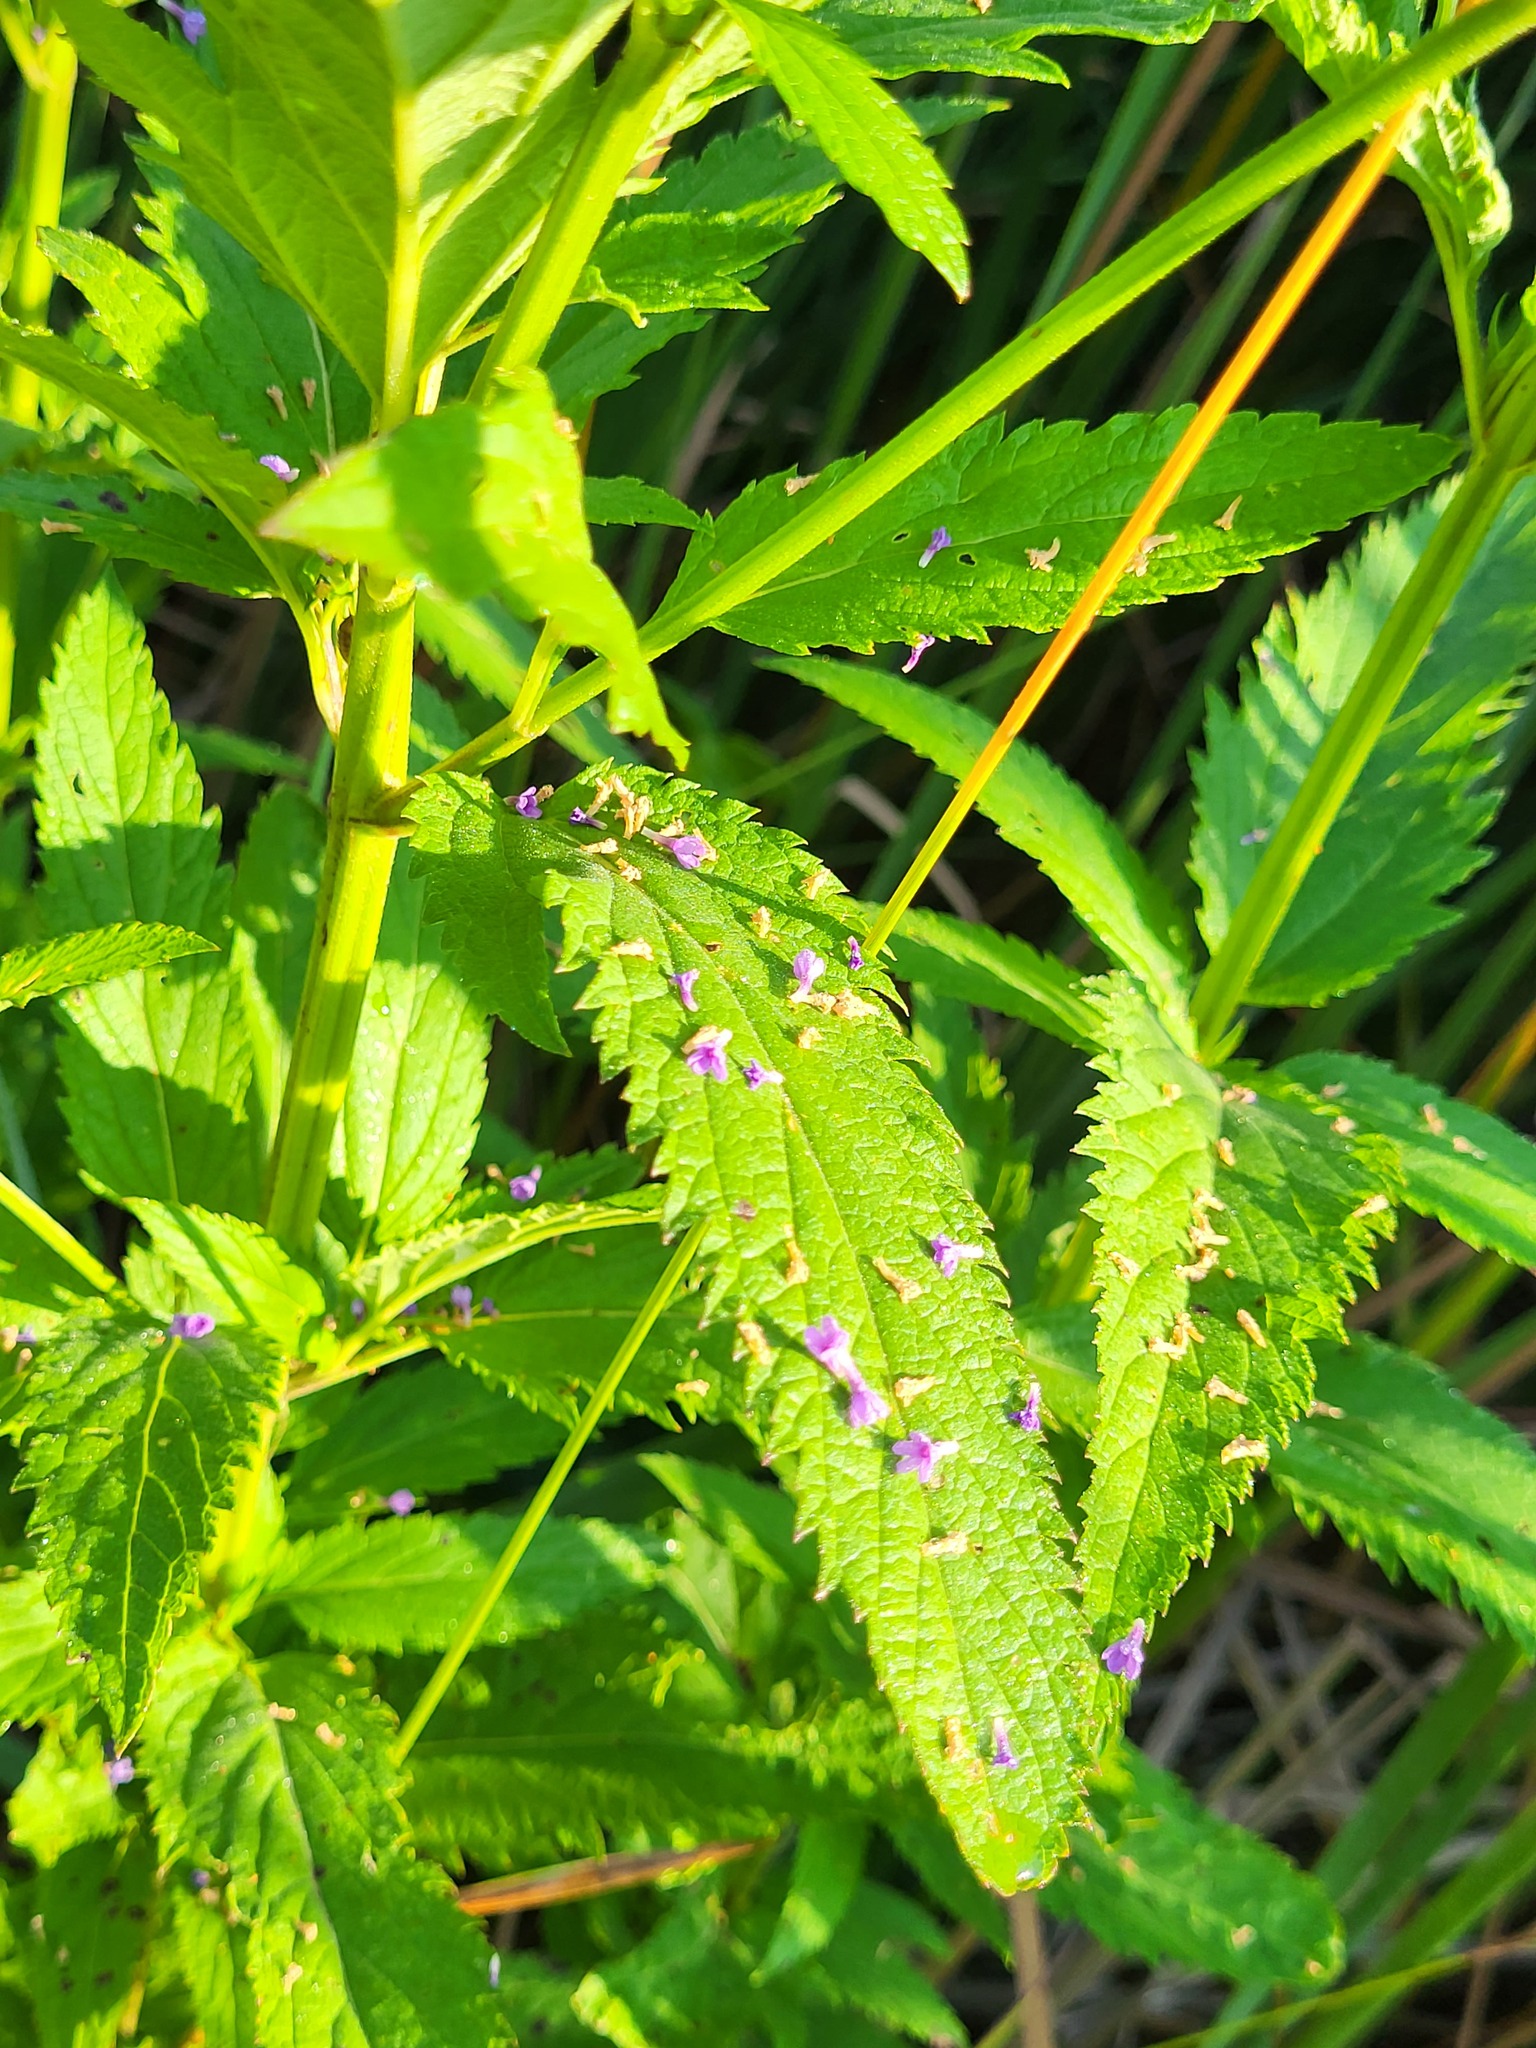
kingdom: Plantae
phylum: Tracheophyta
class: Magnoliopsida
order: Lamiales
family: Verbenaceae
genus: Verbena
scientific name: Verbena hastata
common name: American blue vervain
